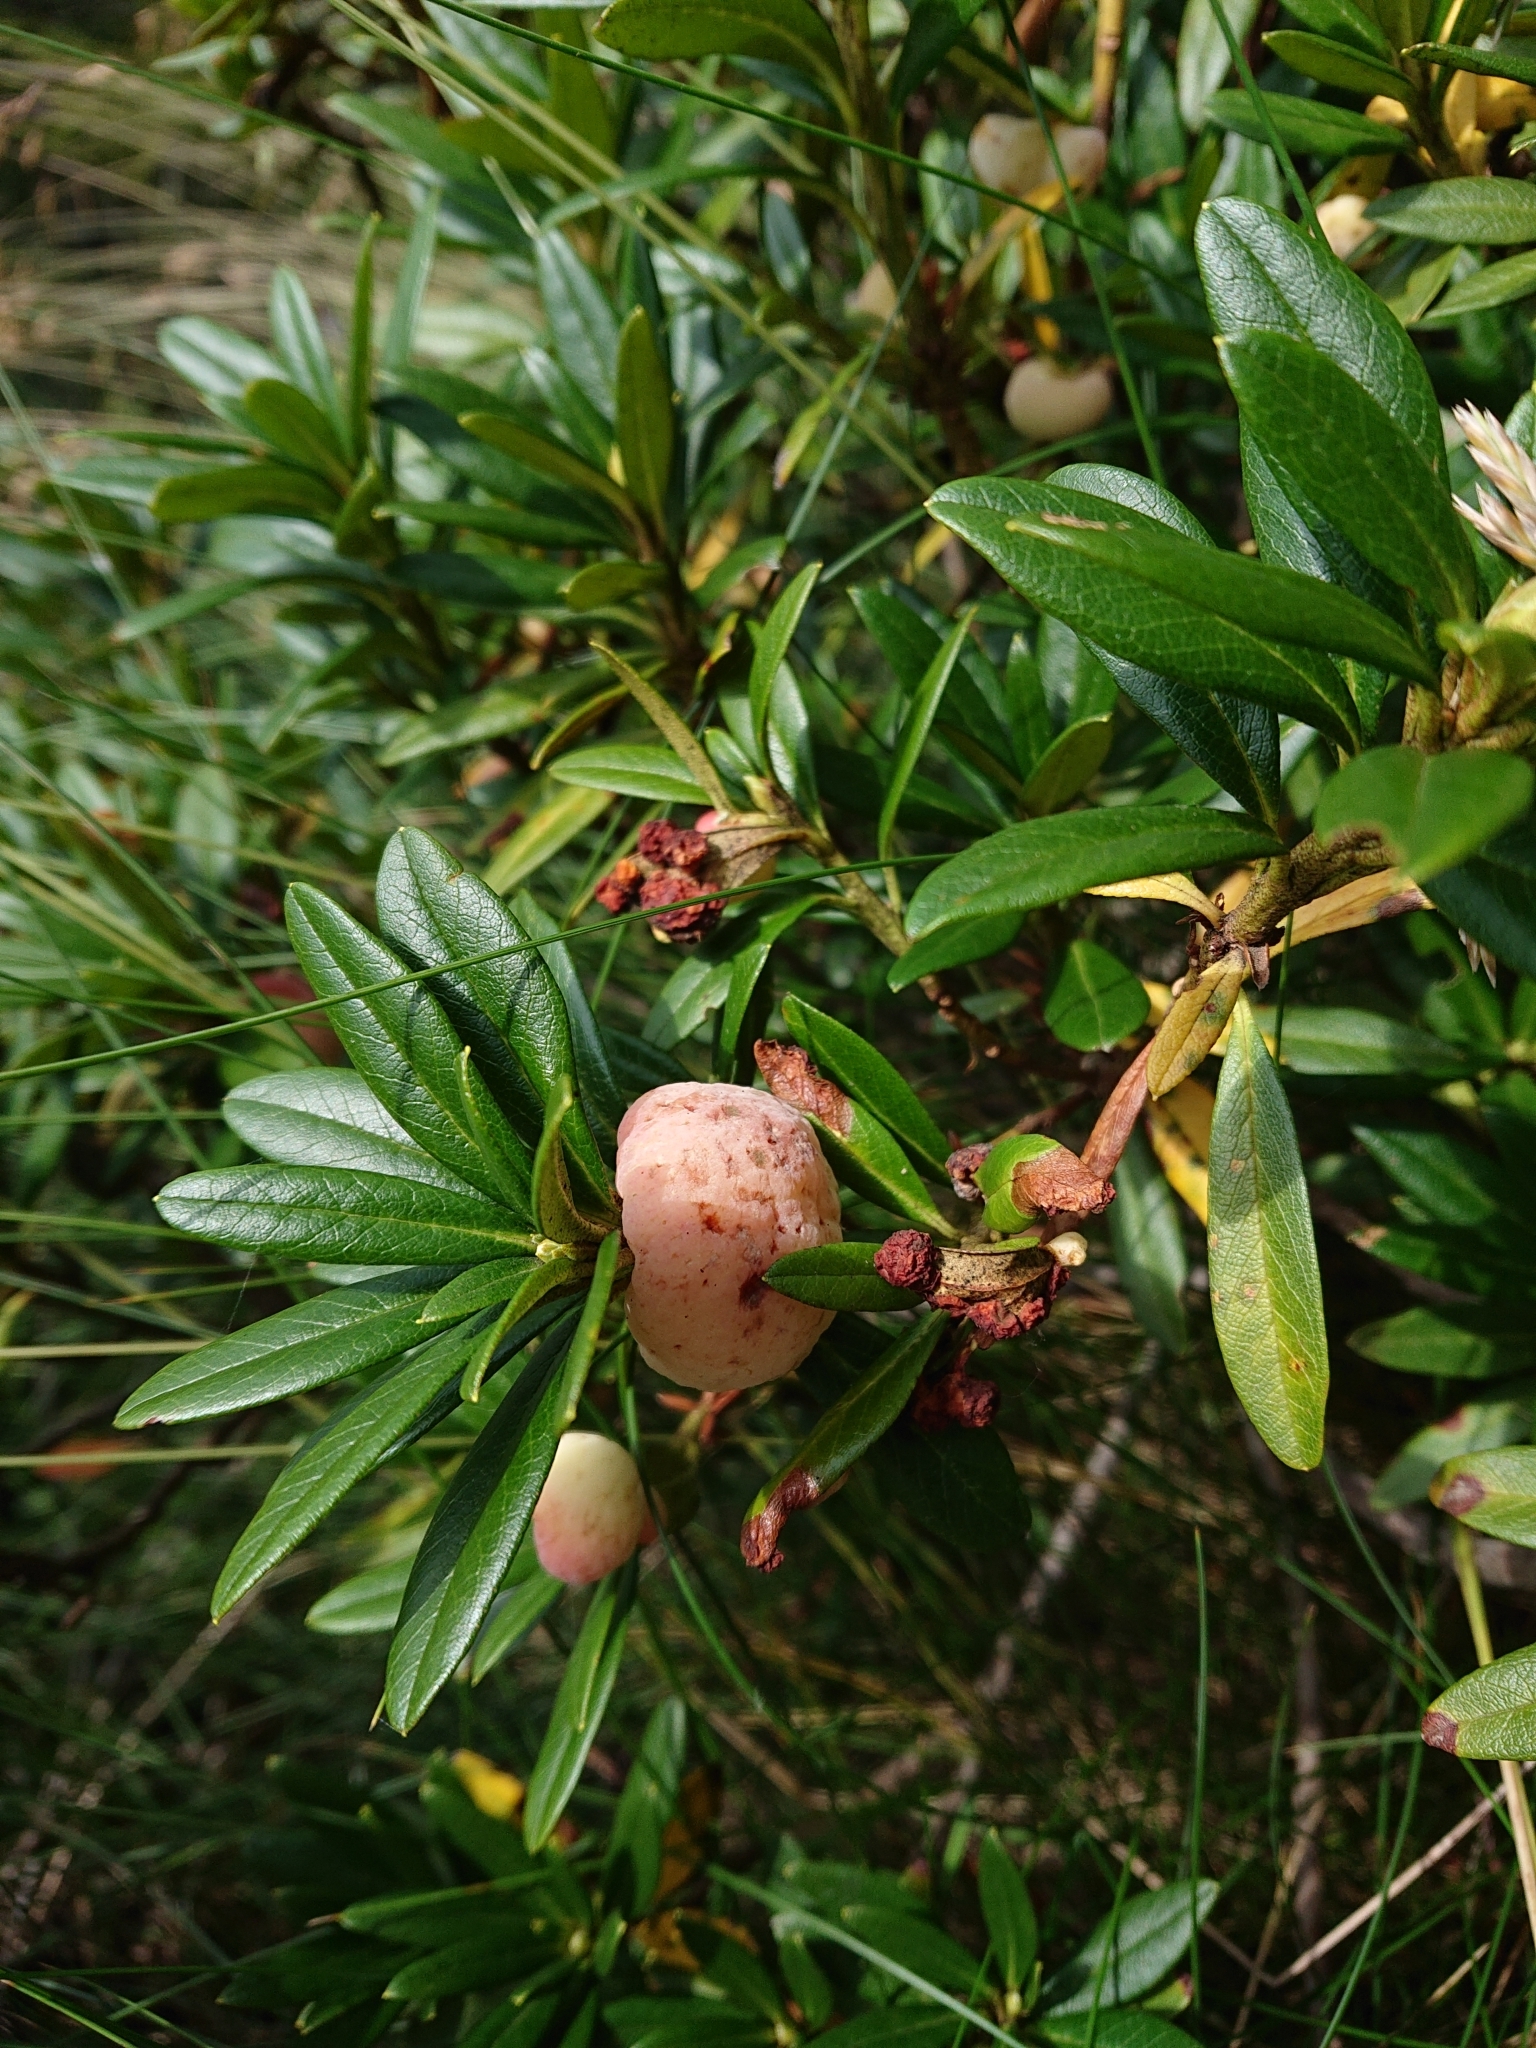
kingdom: Fungi
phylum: Basidiomycota
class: Exobasidiomycetes
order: Exobasidiales
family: Exobasidiaceae
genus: Exobasidium
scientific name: Exobasidium rhododendri
